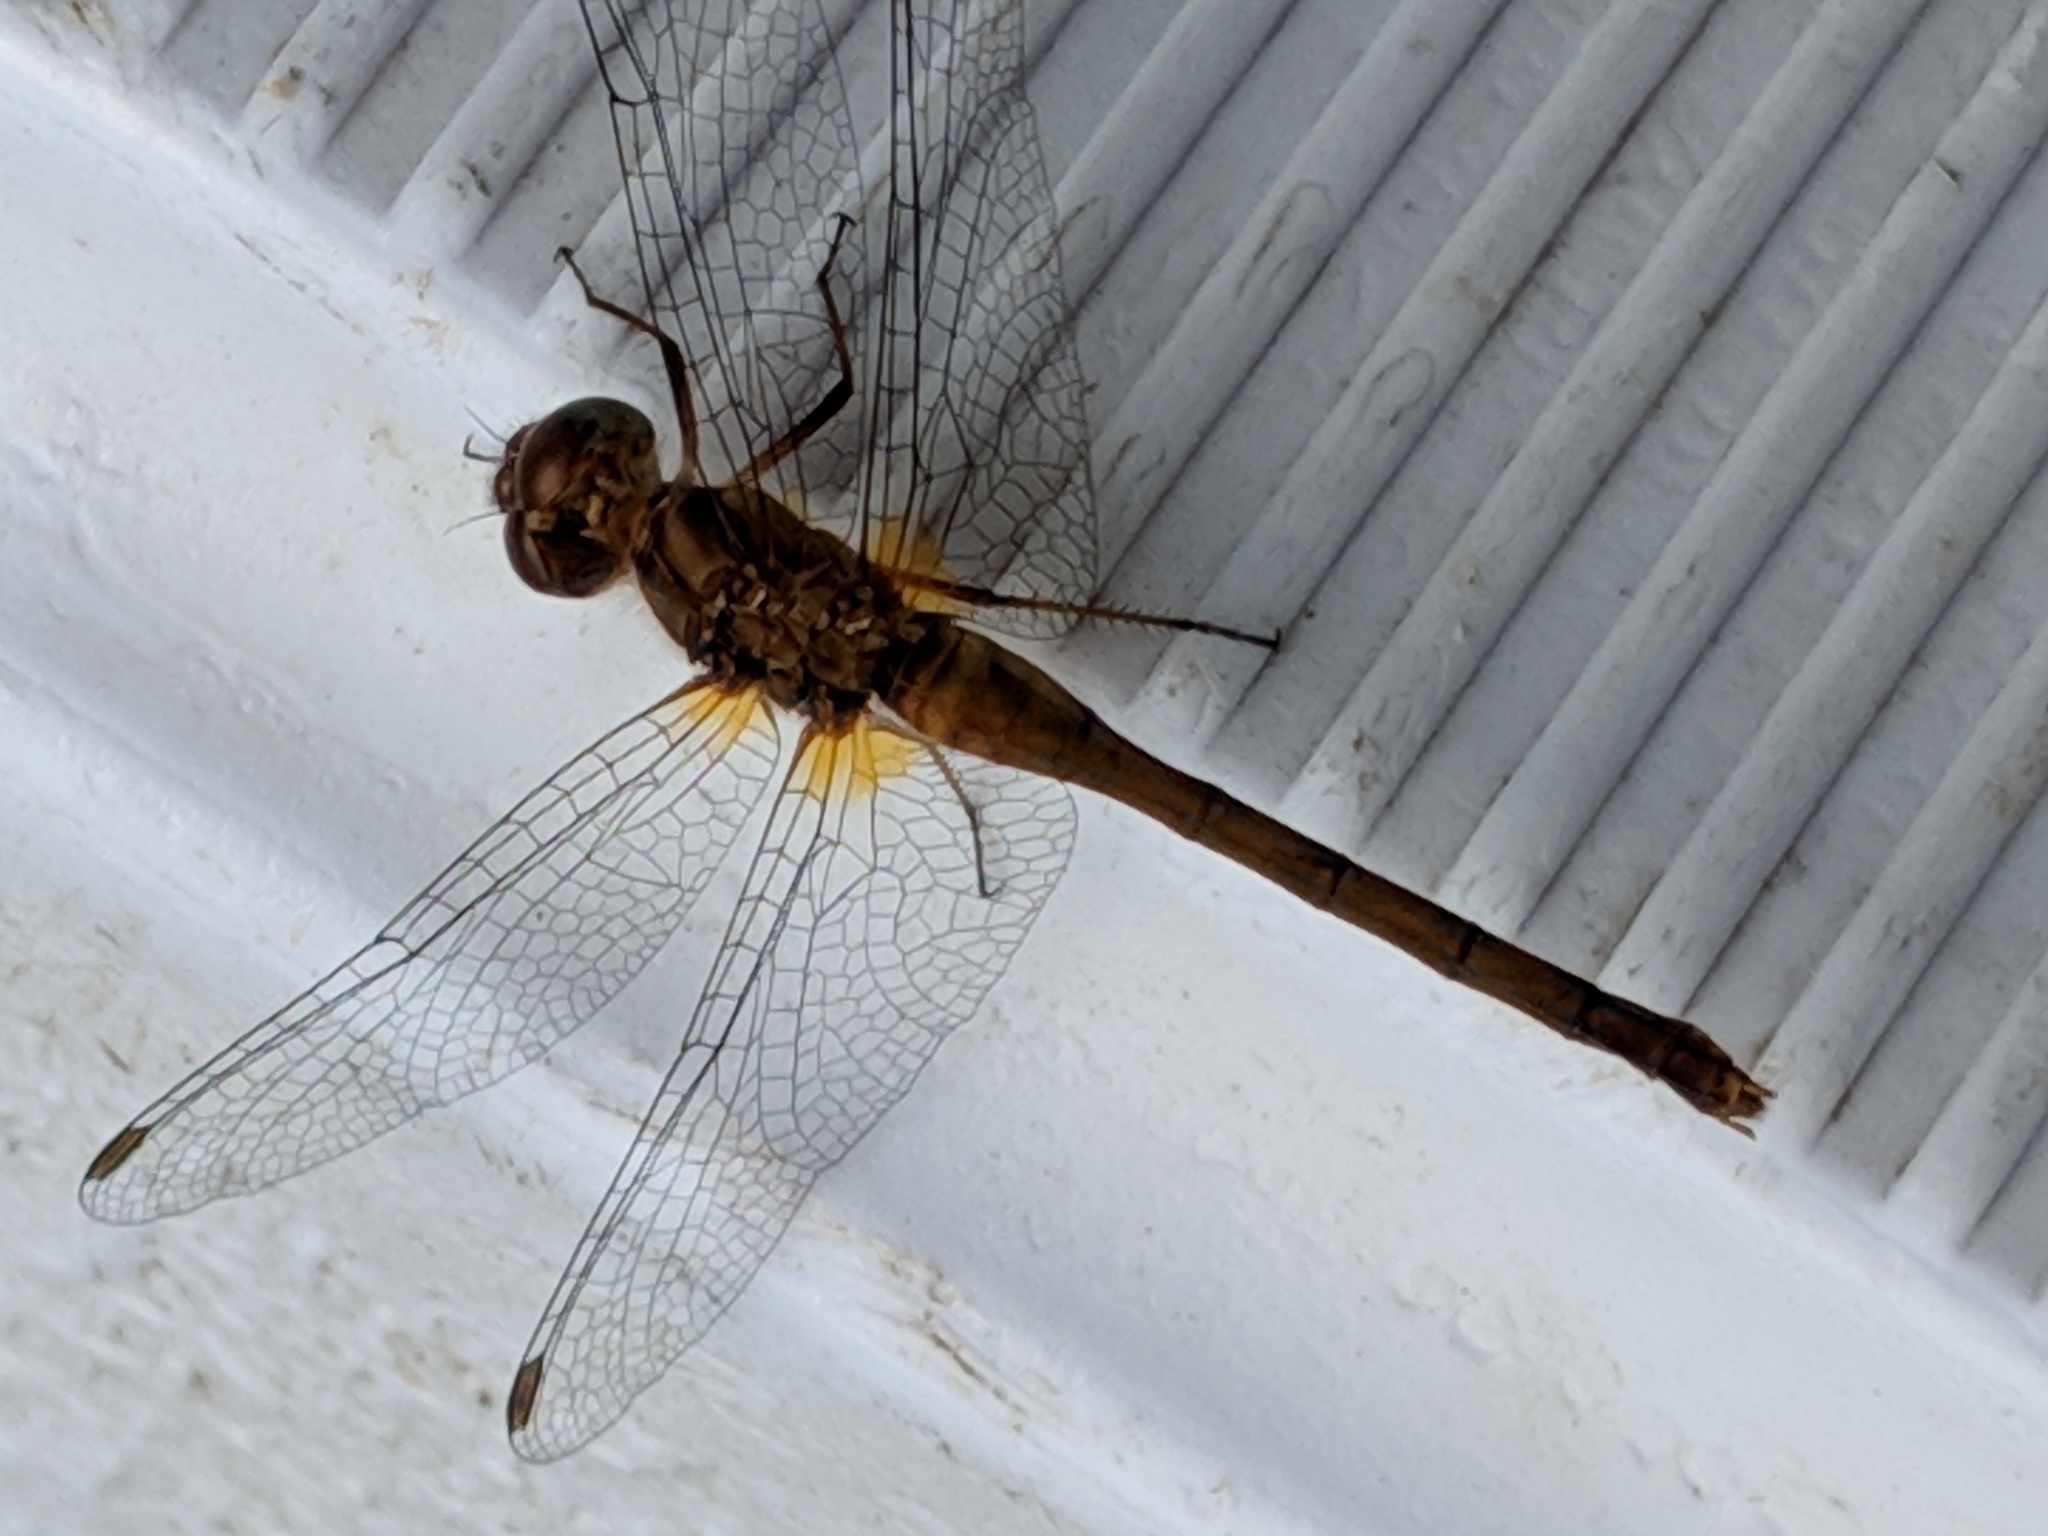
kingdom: Animalia
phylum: Arthropoda
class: Insecta
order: Odonata
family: Libellulidae
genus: Sympetrum
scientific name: Sympetrum vicinum
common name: Autumn meadowhawk
